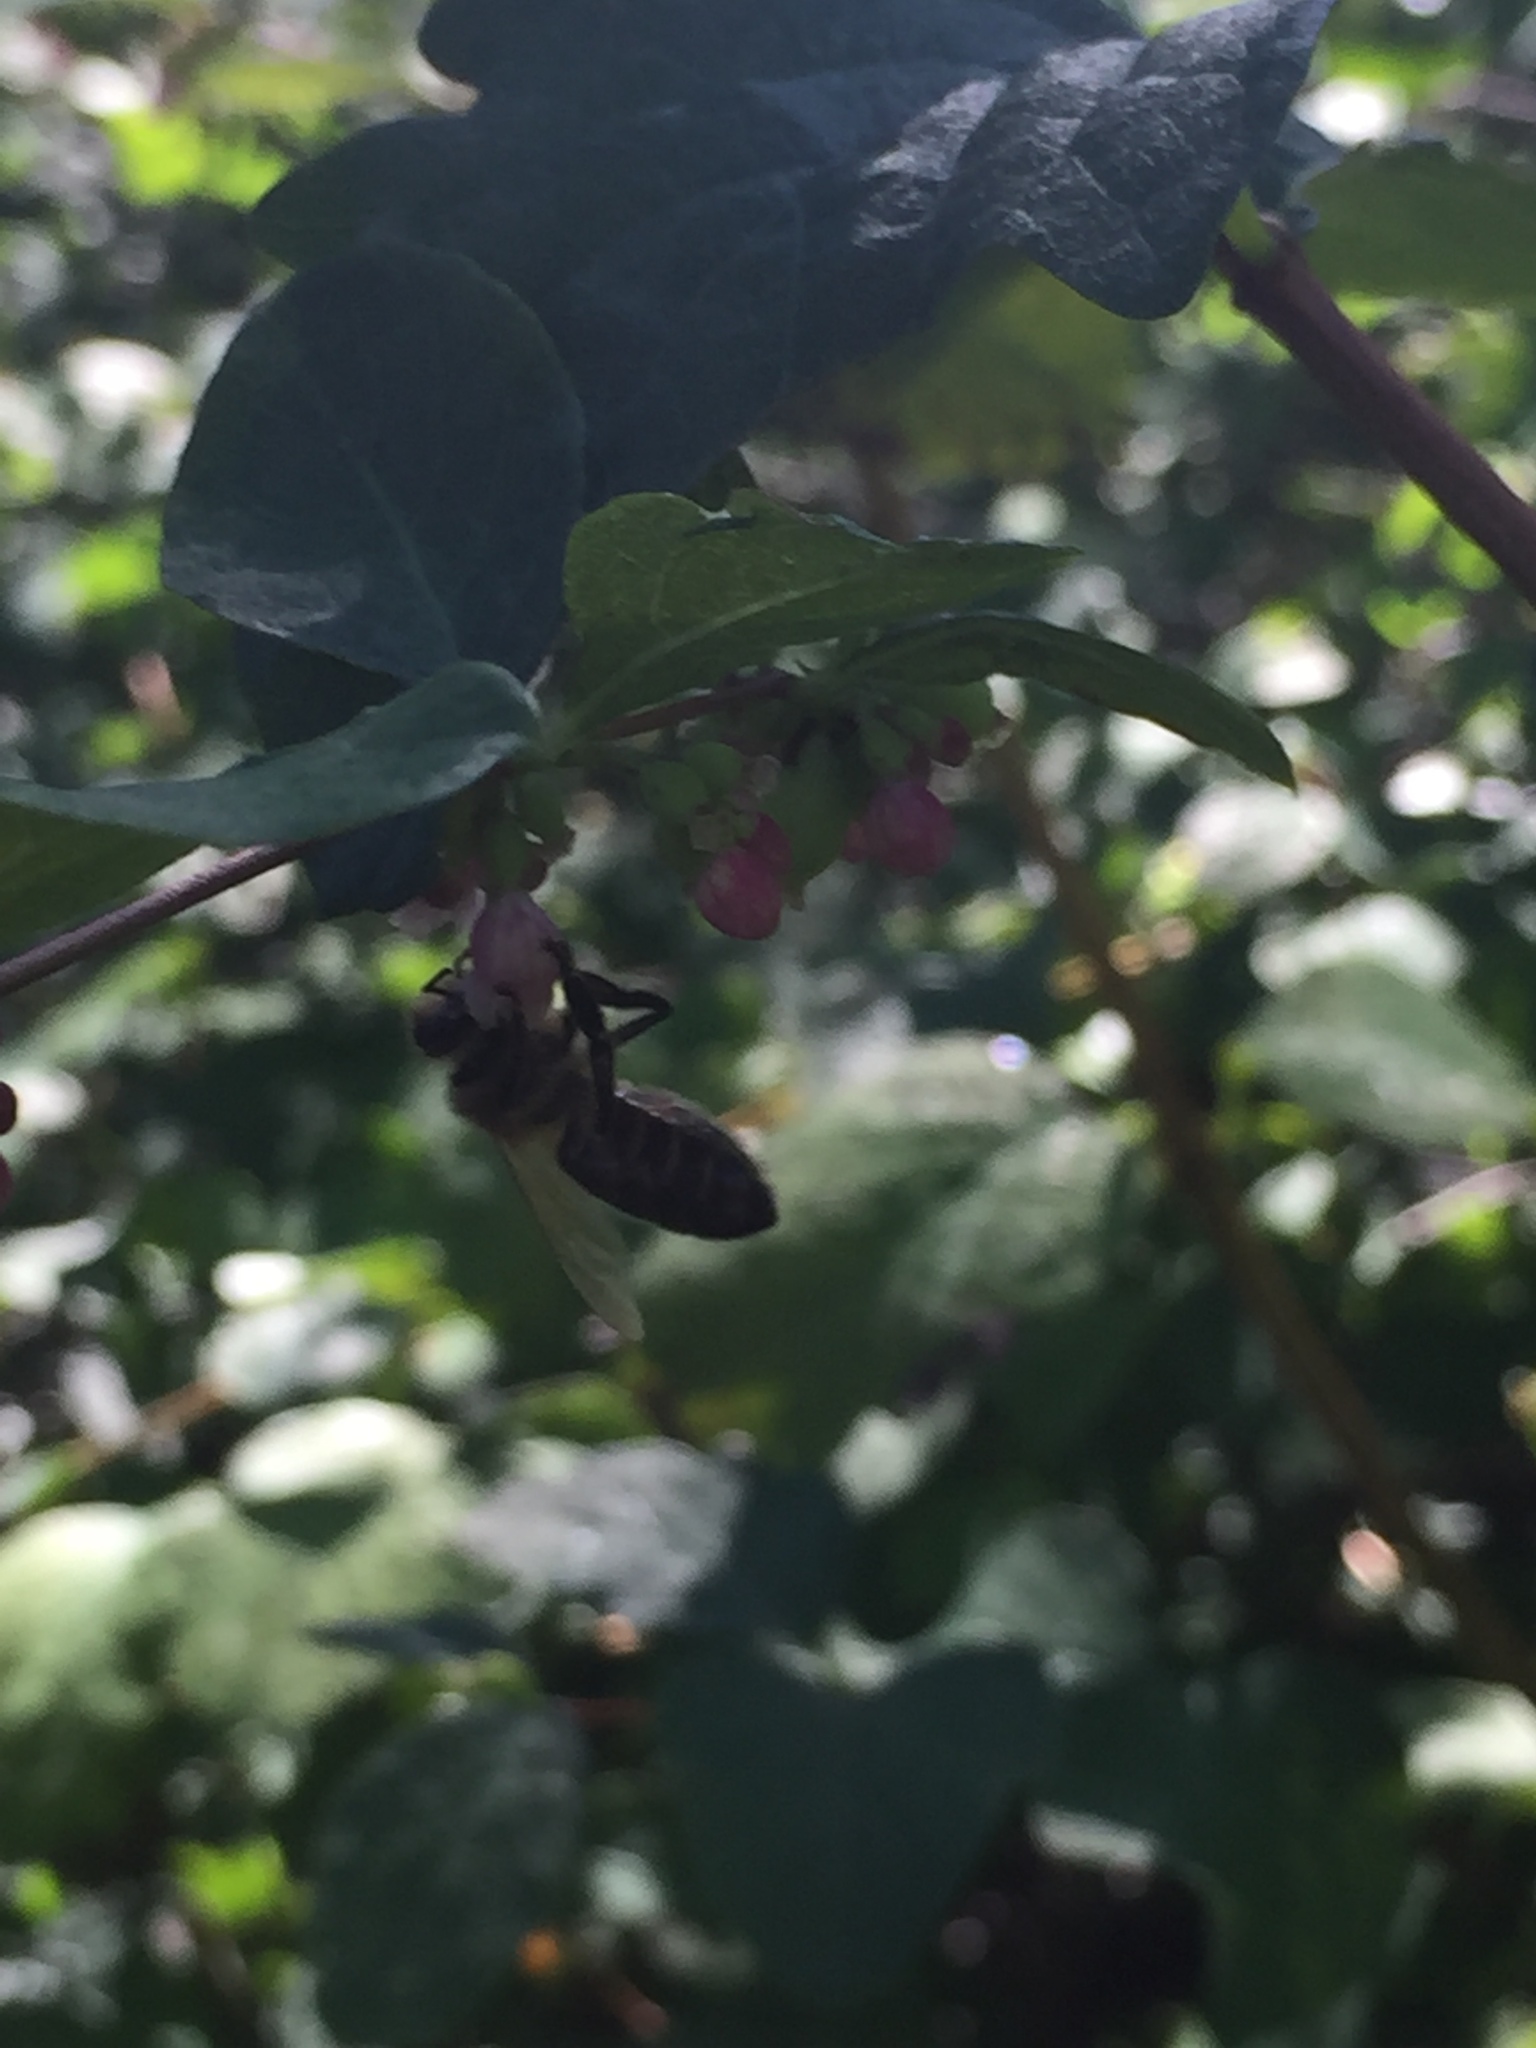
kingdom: Animalia
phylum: Arthropoda
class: Insecta
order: Hymenoptera
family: Apidae
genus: Apis
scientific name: Apis mellifera
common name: Honey bee
